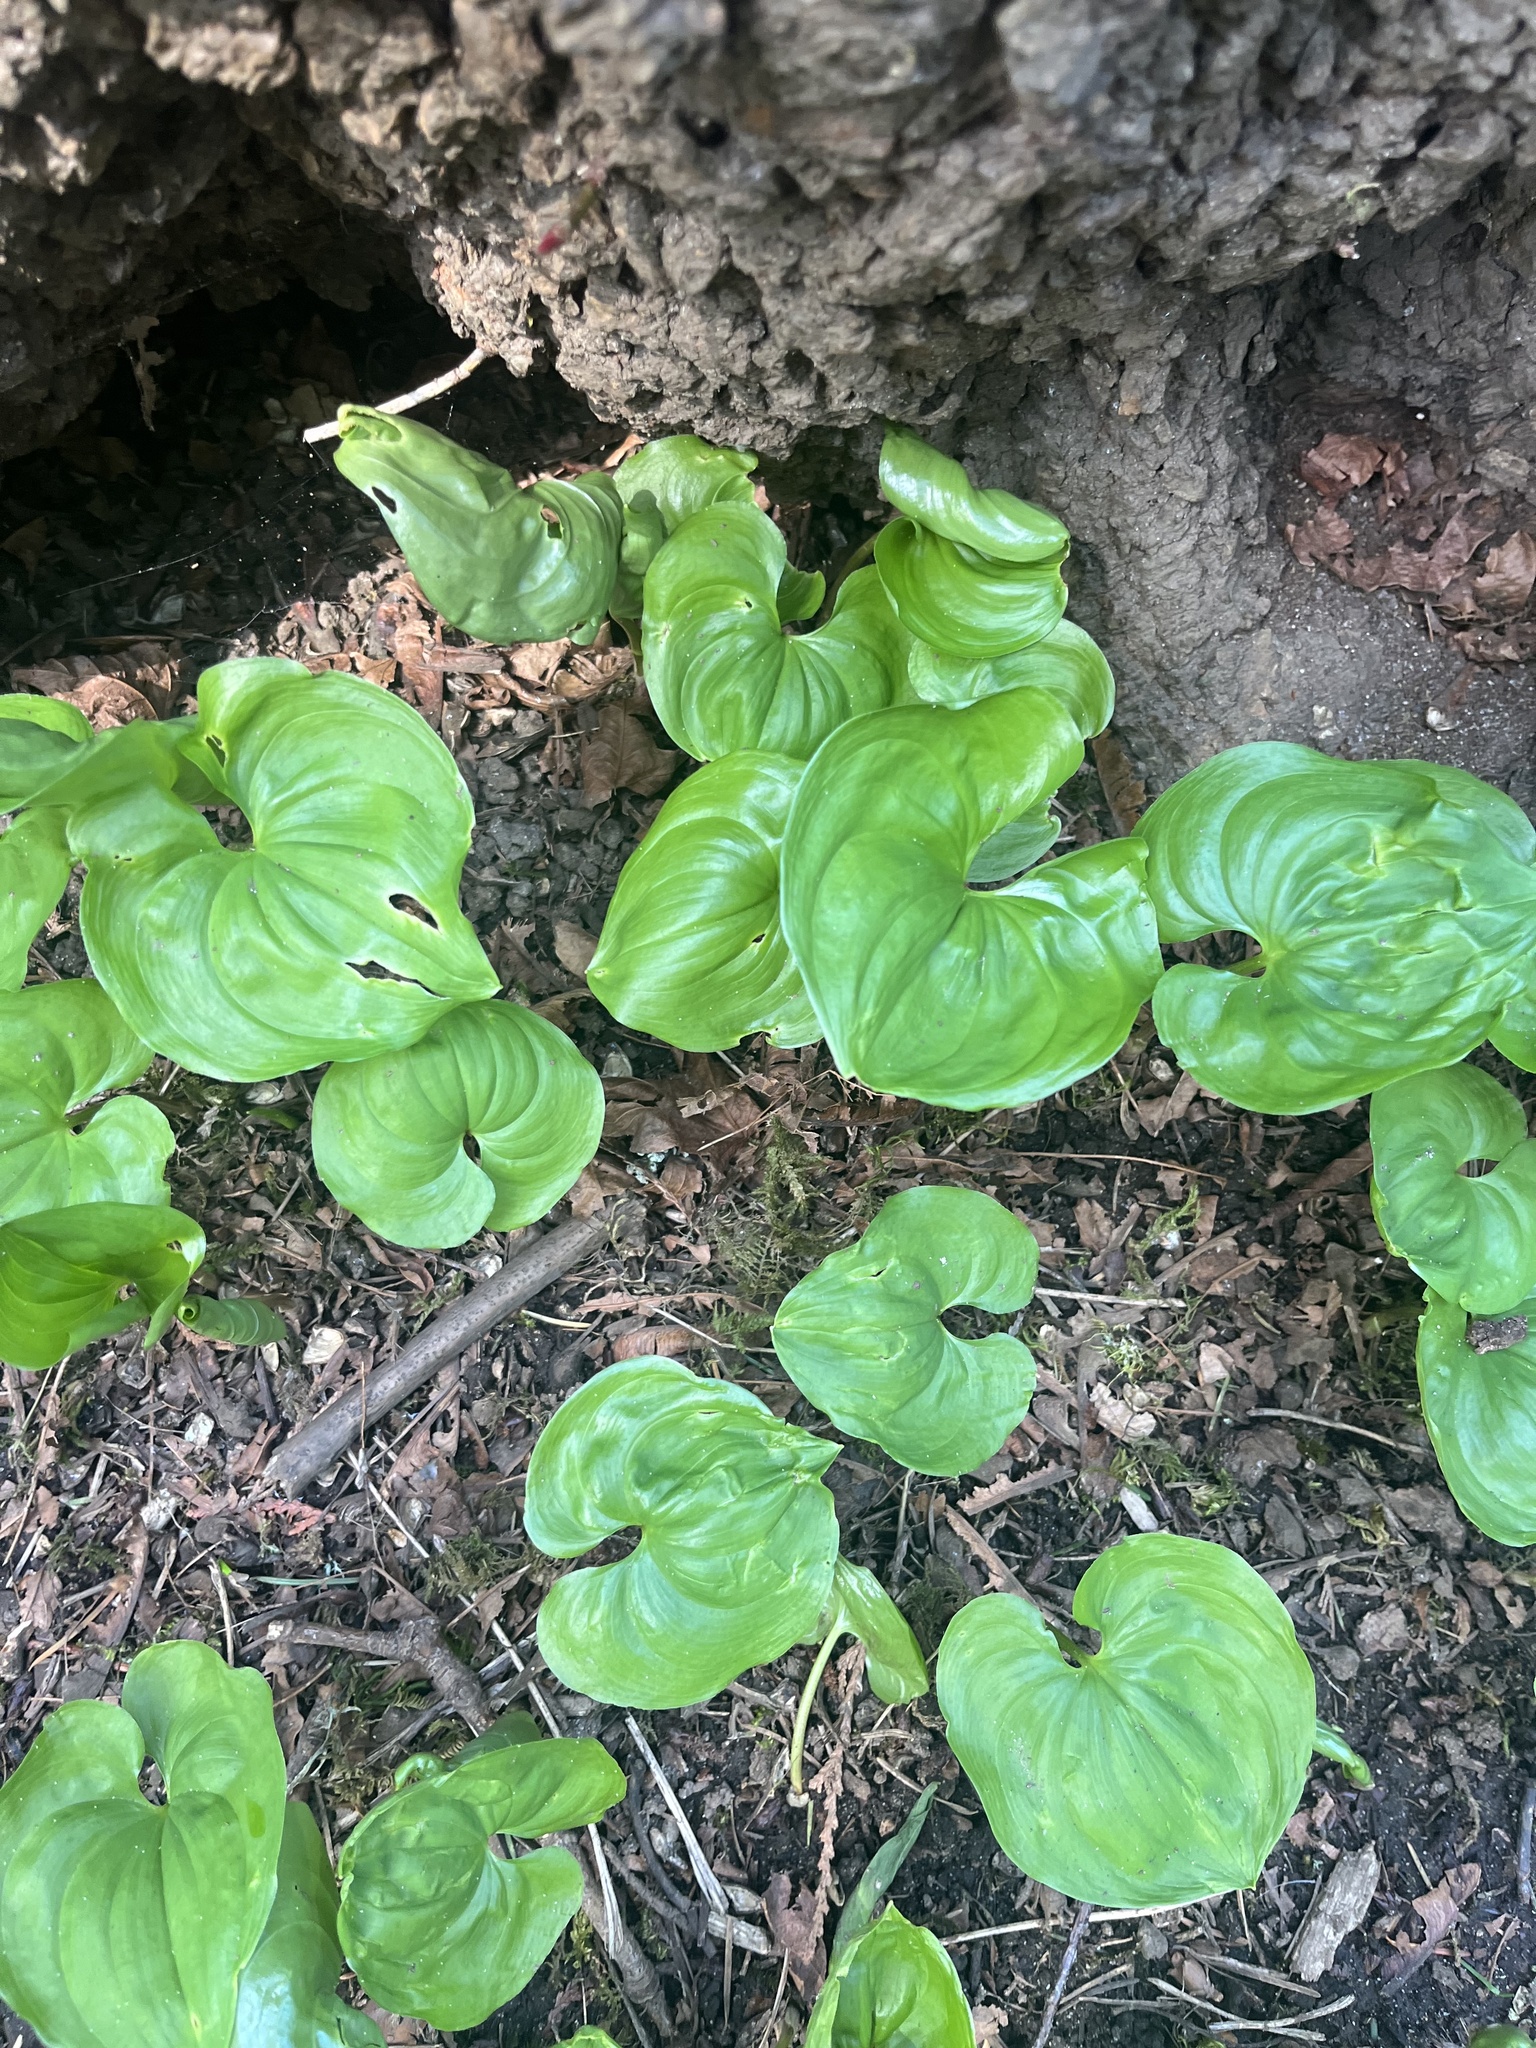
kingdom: Plantae
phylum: Tracheophyta
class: Liliopsida
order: Asparagales
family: Asparagaceae
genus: Maianthemum
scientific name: Maianthemum dilatatum
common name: False lily-of-the-valley
